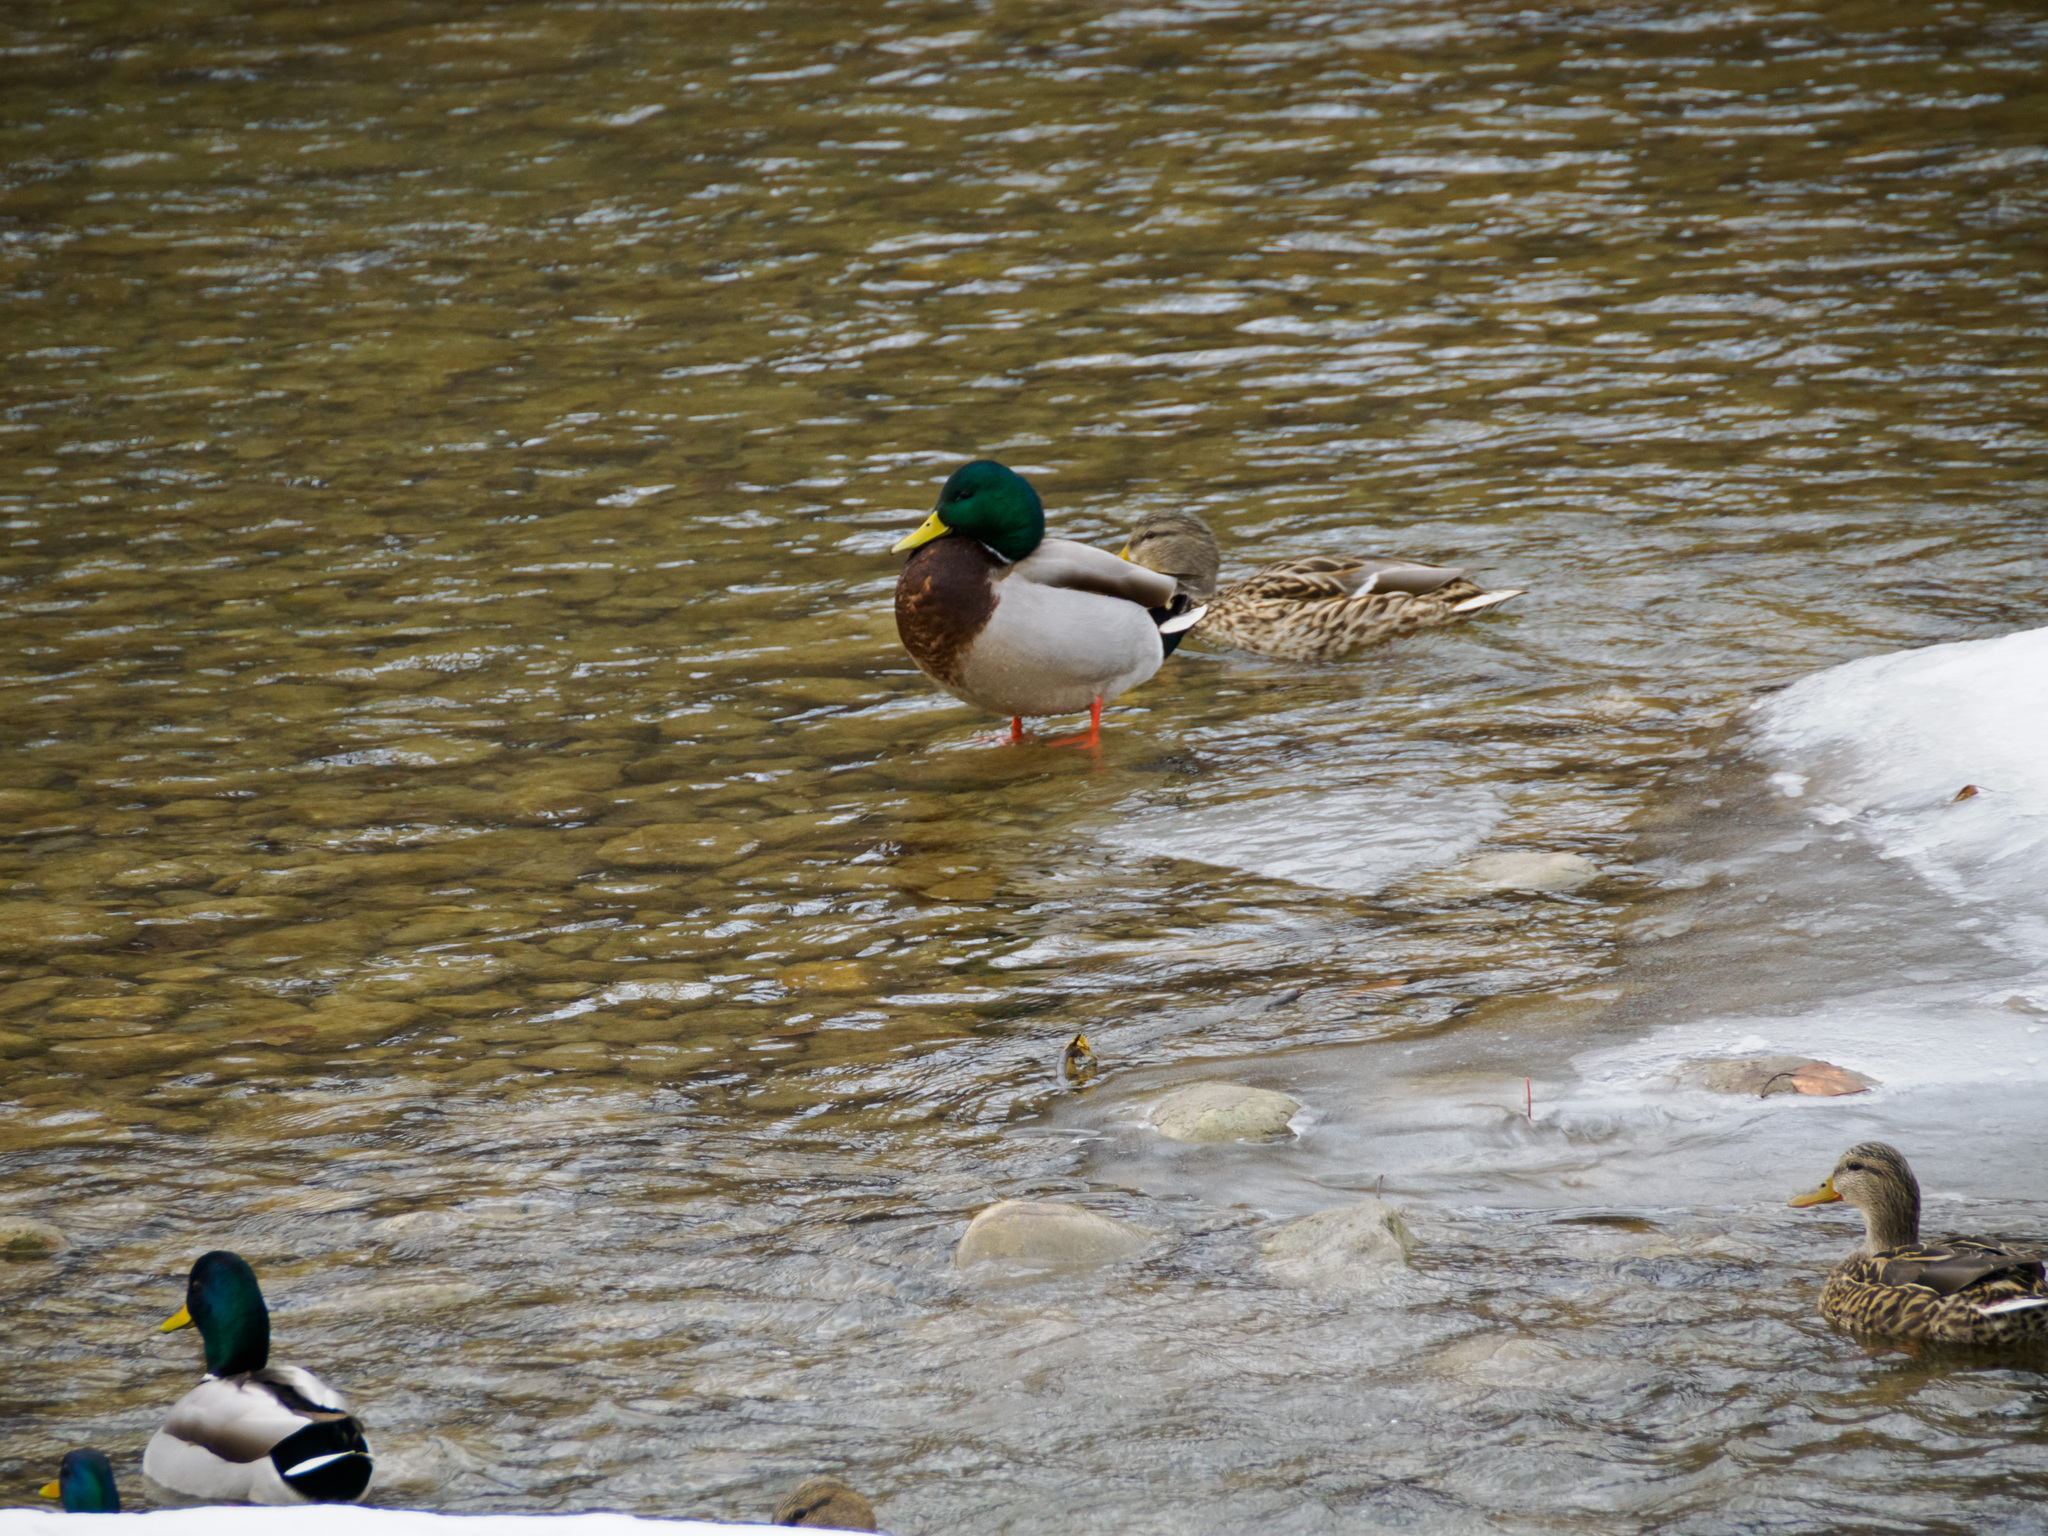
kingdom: Animalia
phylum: Chordata
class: Aves
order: Anseriformes
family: Anatidae
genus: Anas
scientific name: Anas platyrhynchos
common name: Mallard
